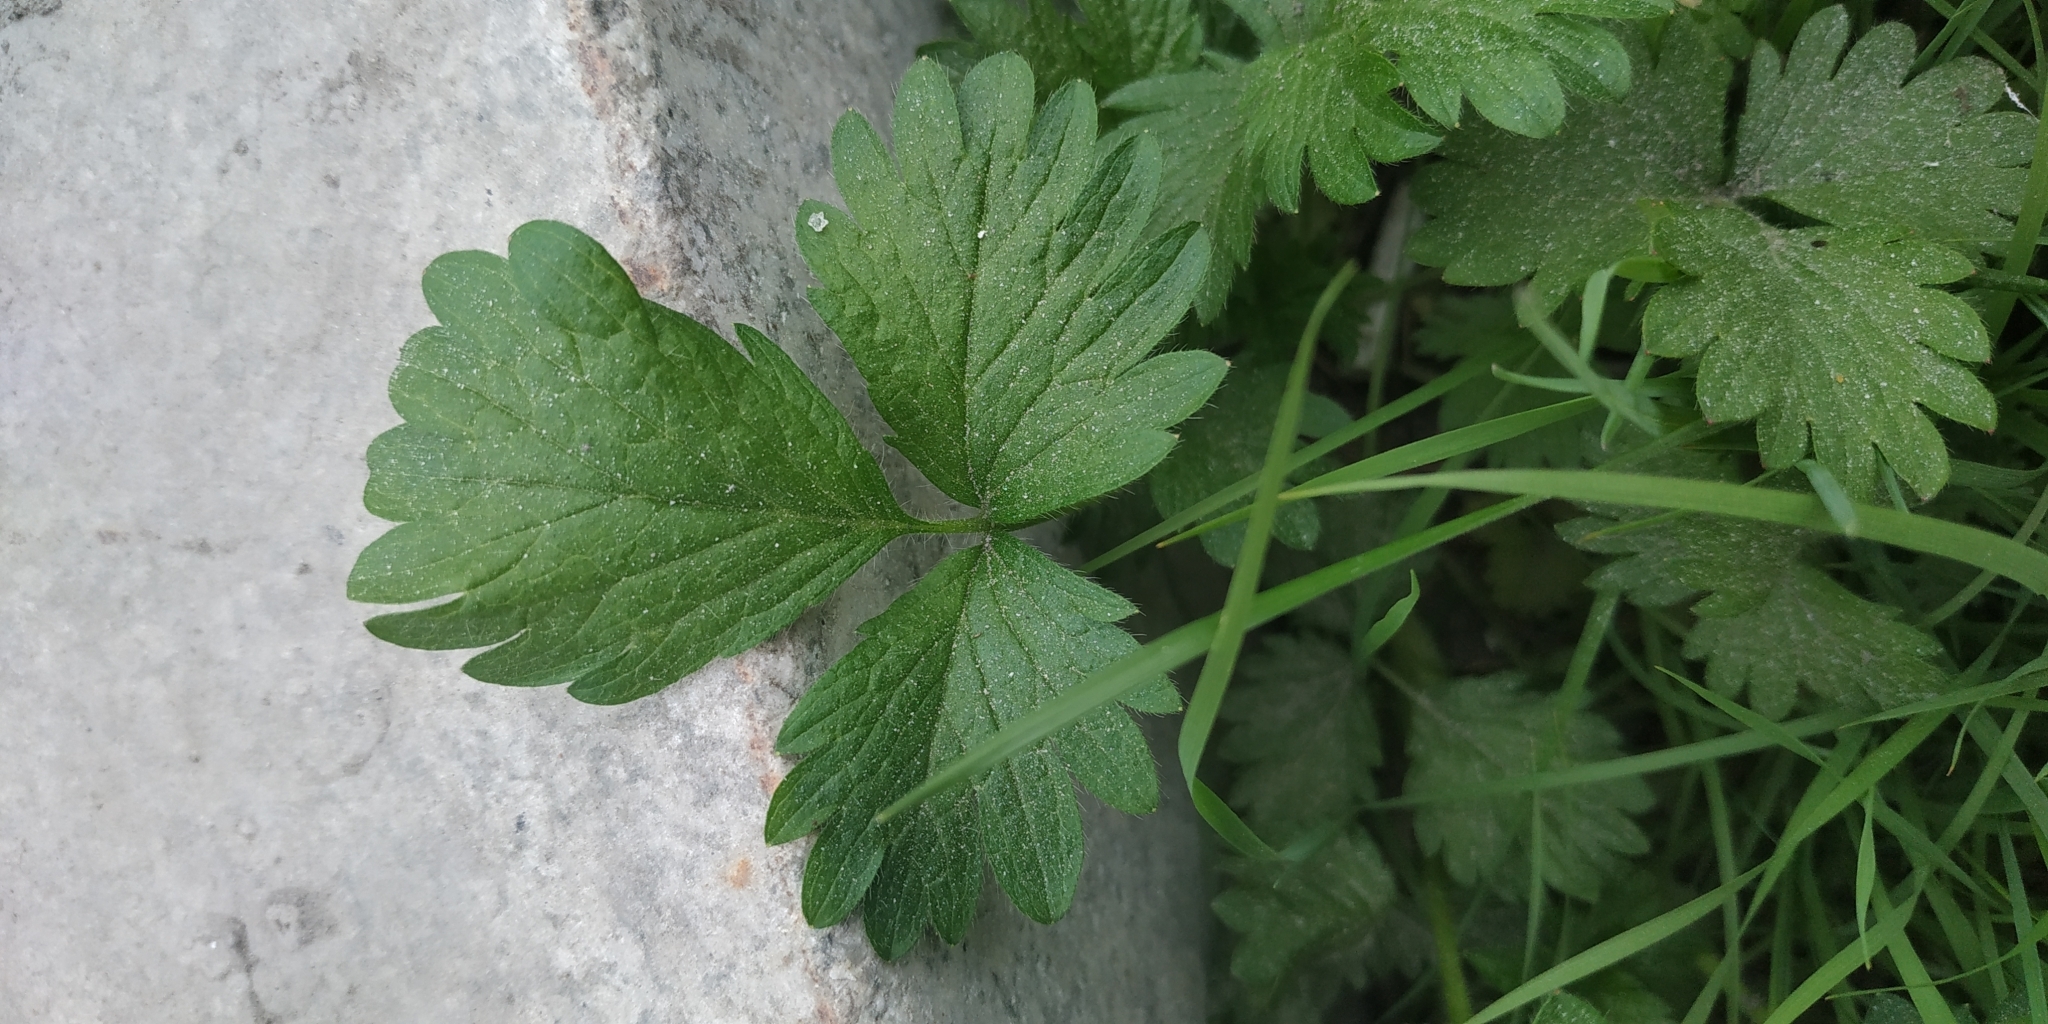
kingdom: Plantae
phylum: Tracheophyta
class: Magnoliopsida
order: Rosales
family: Rosaceae
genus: Potentilla
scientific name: Potentilla norvegica
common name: Ternate-leaved cinquefoil
